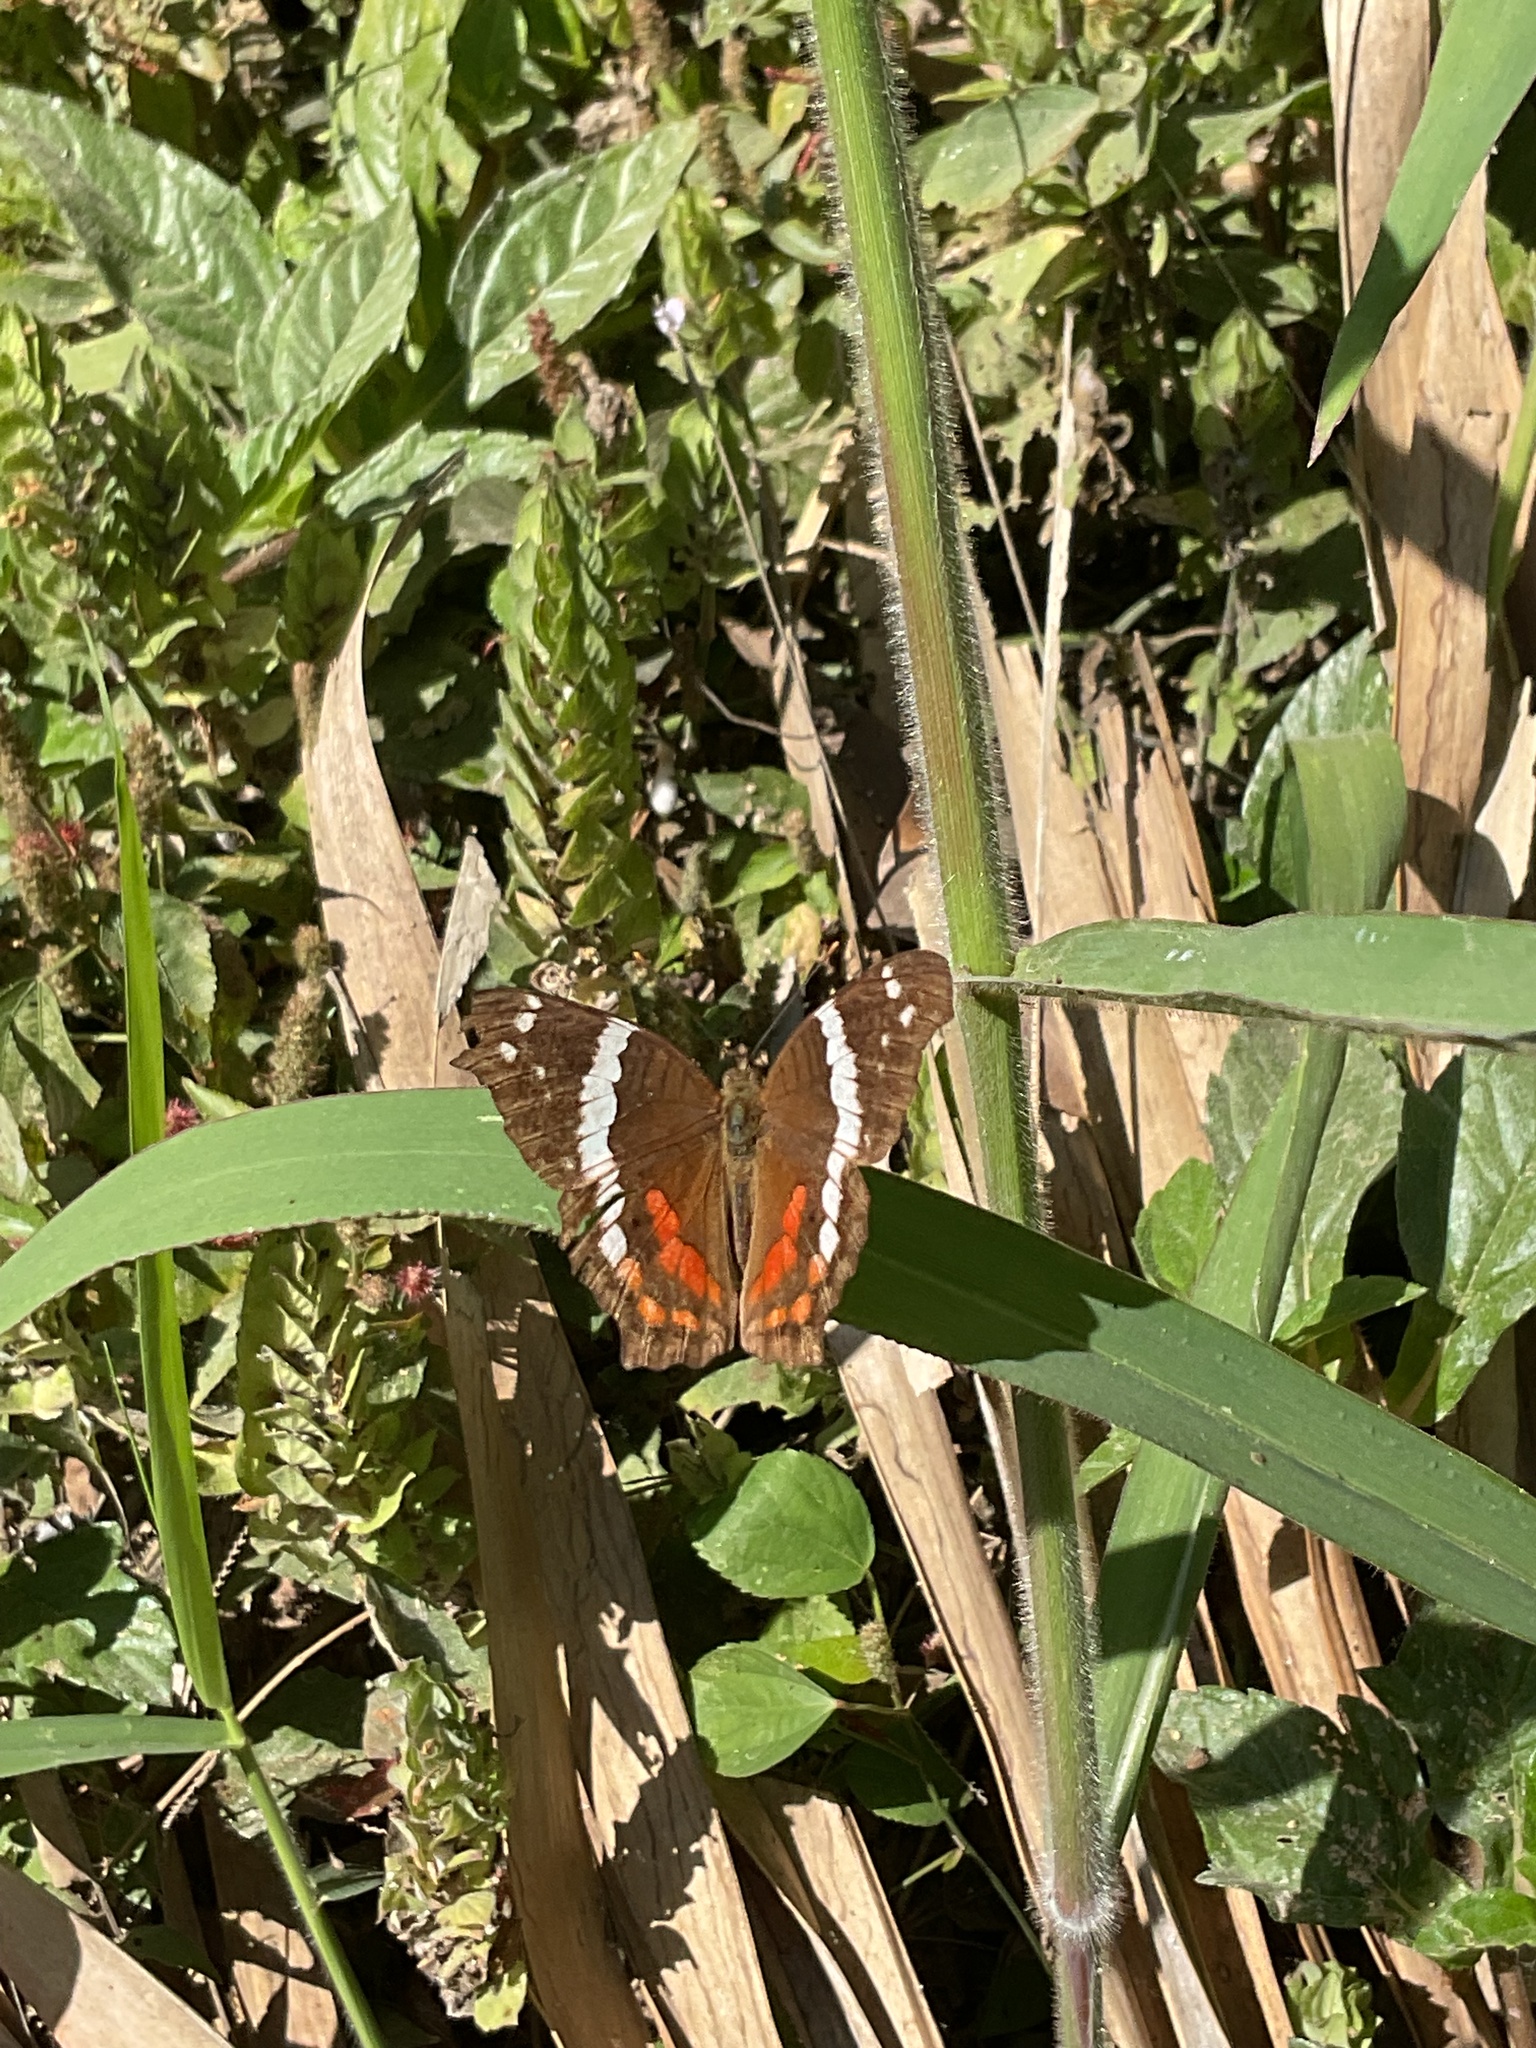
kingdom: Animalia
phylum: Arthropoda
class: Insecta
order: Lepidoptera
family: Nymphalidae
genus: Anartia
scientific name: Anartia fatima
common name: Banded peacock
